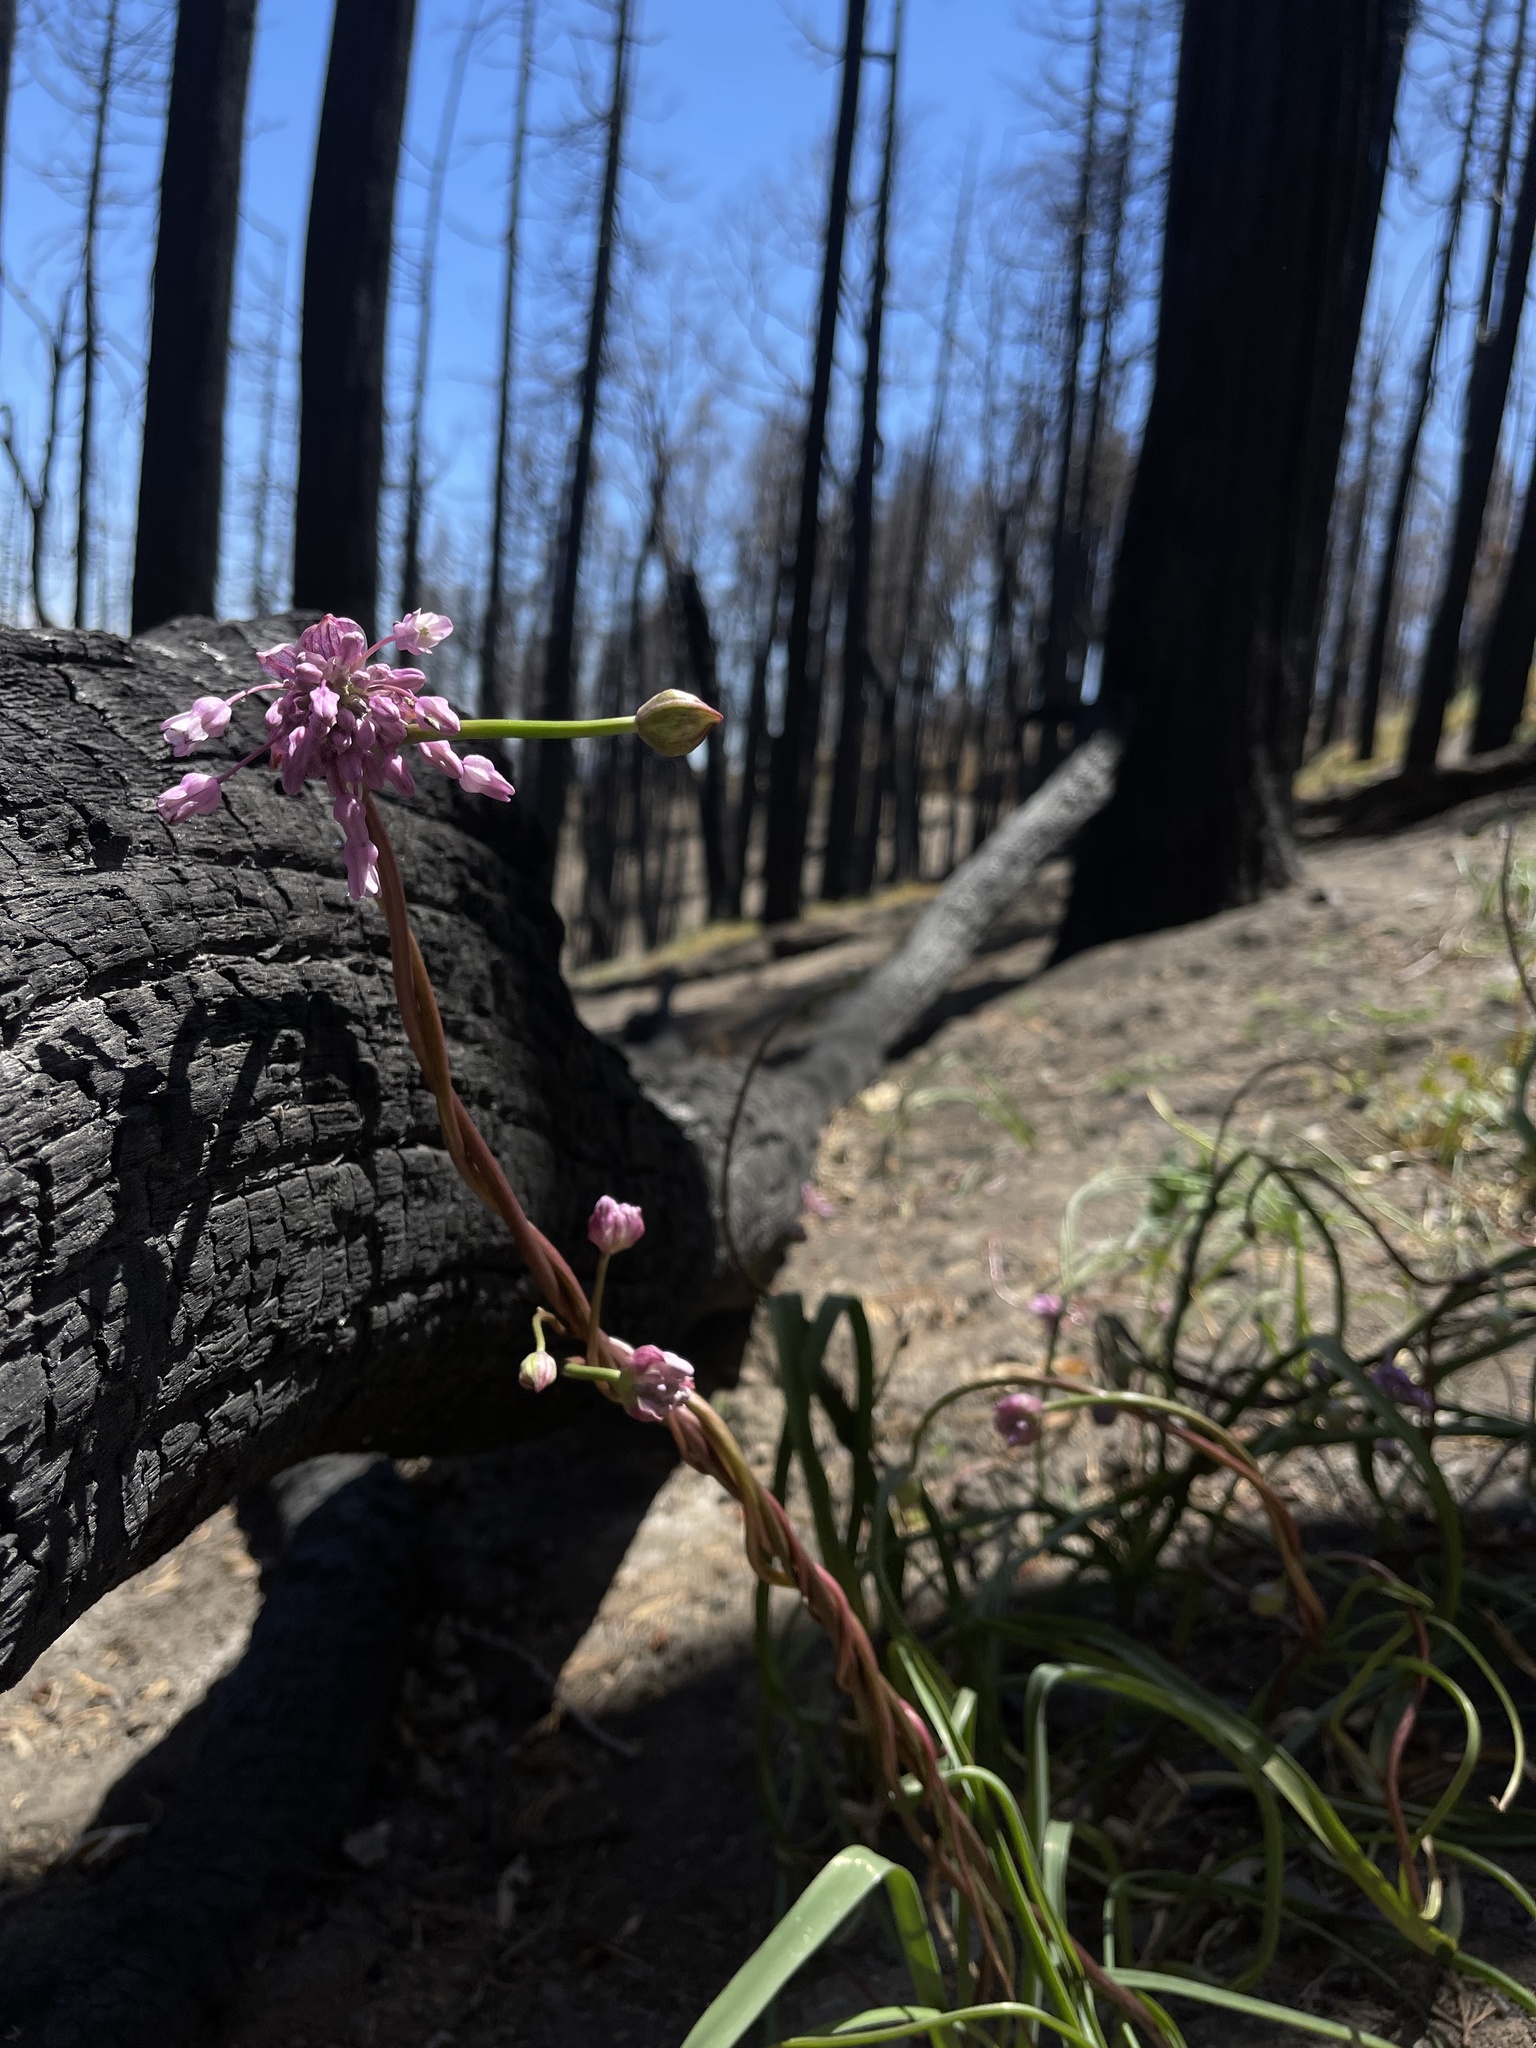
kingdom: Plantae
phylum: Tracheophyta
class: Liliopsida
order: Asparagales
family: Asparagaceae
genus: Dichelostemma
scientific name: Dichelostemma volubile
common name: Trining brodiaea
